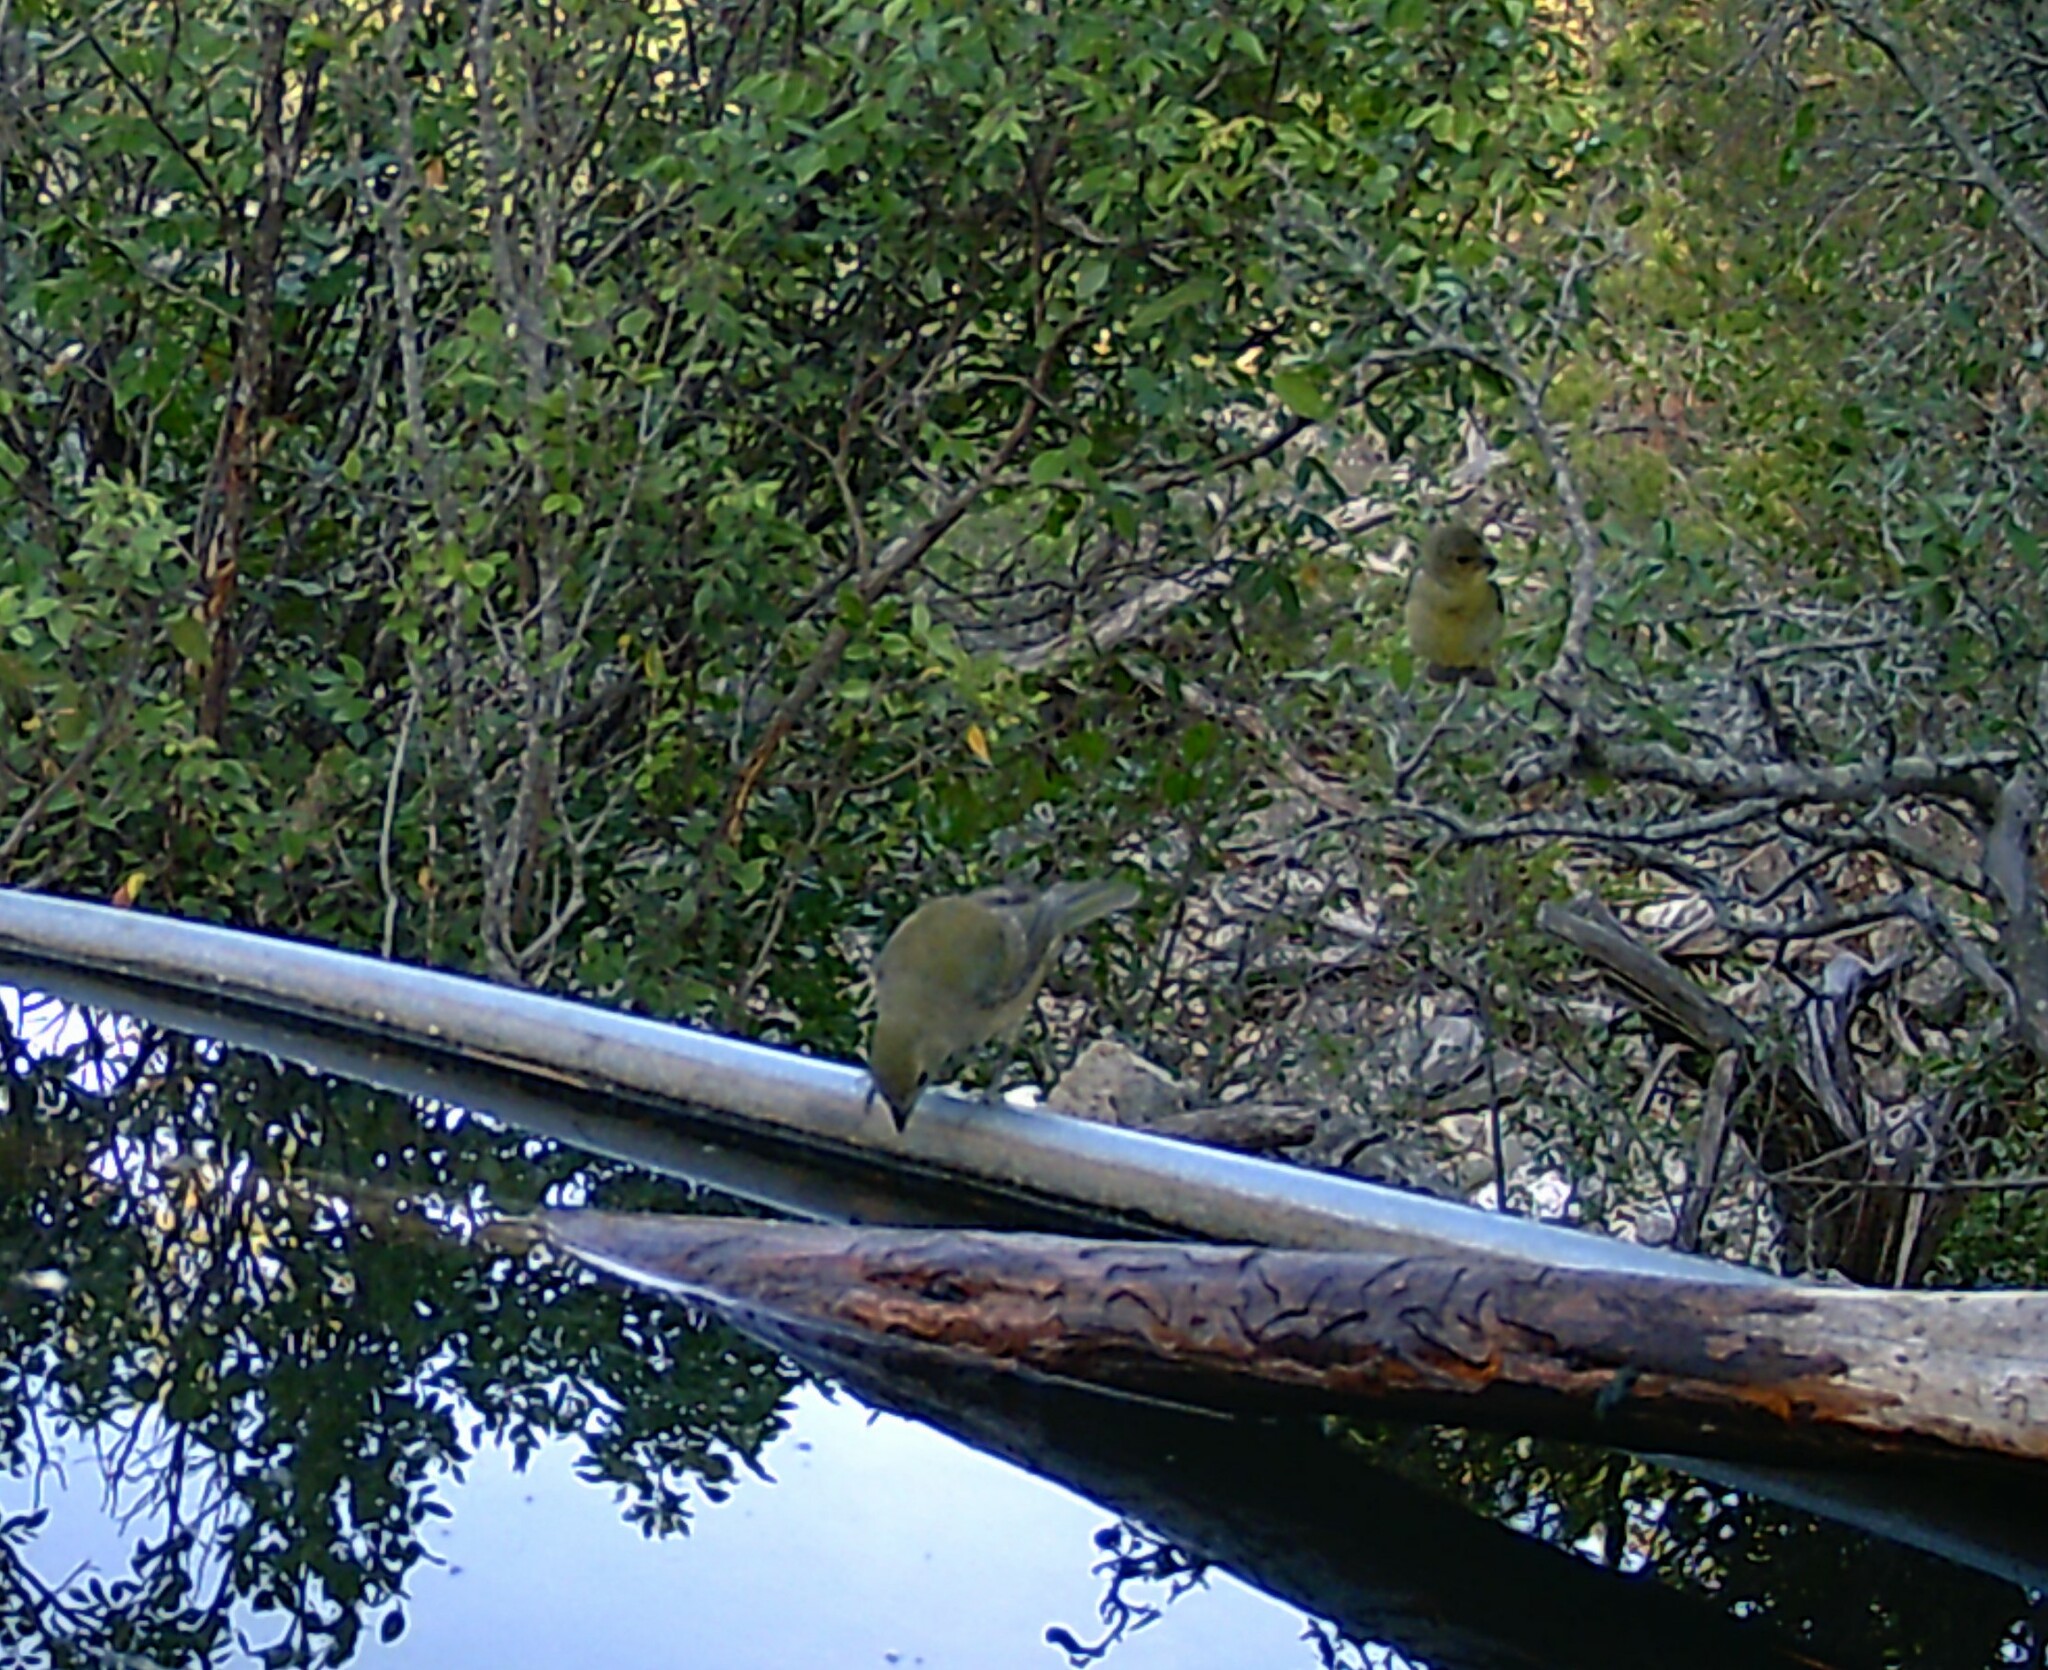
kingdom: Animalia
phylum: Chordata
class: Aves
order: Passeriformes
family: Cardinalidae
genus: Passerina
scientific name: Passerina ciris
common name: Painted bunting
